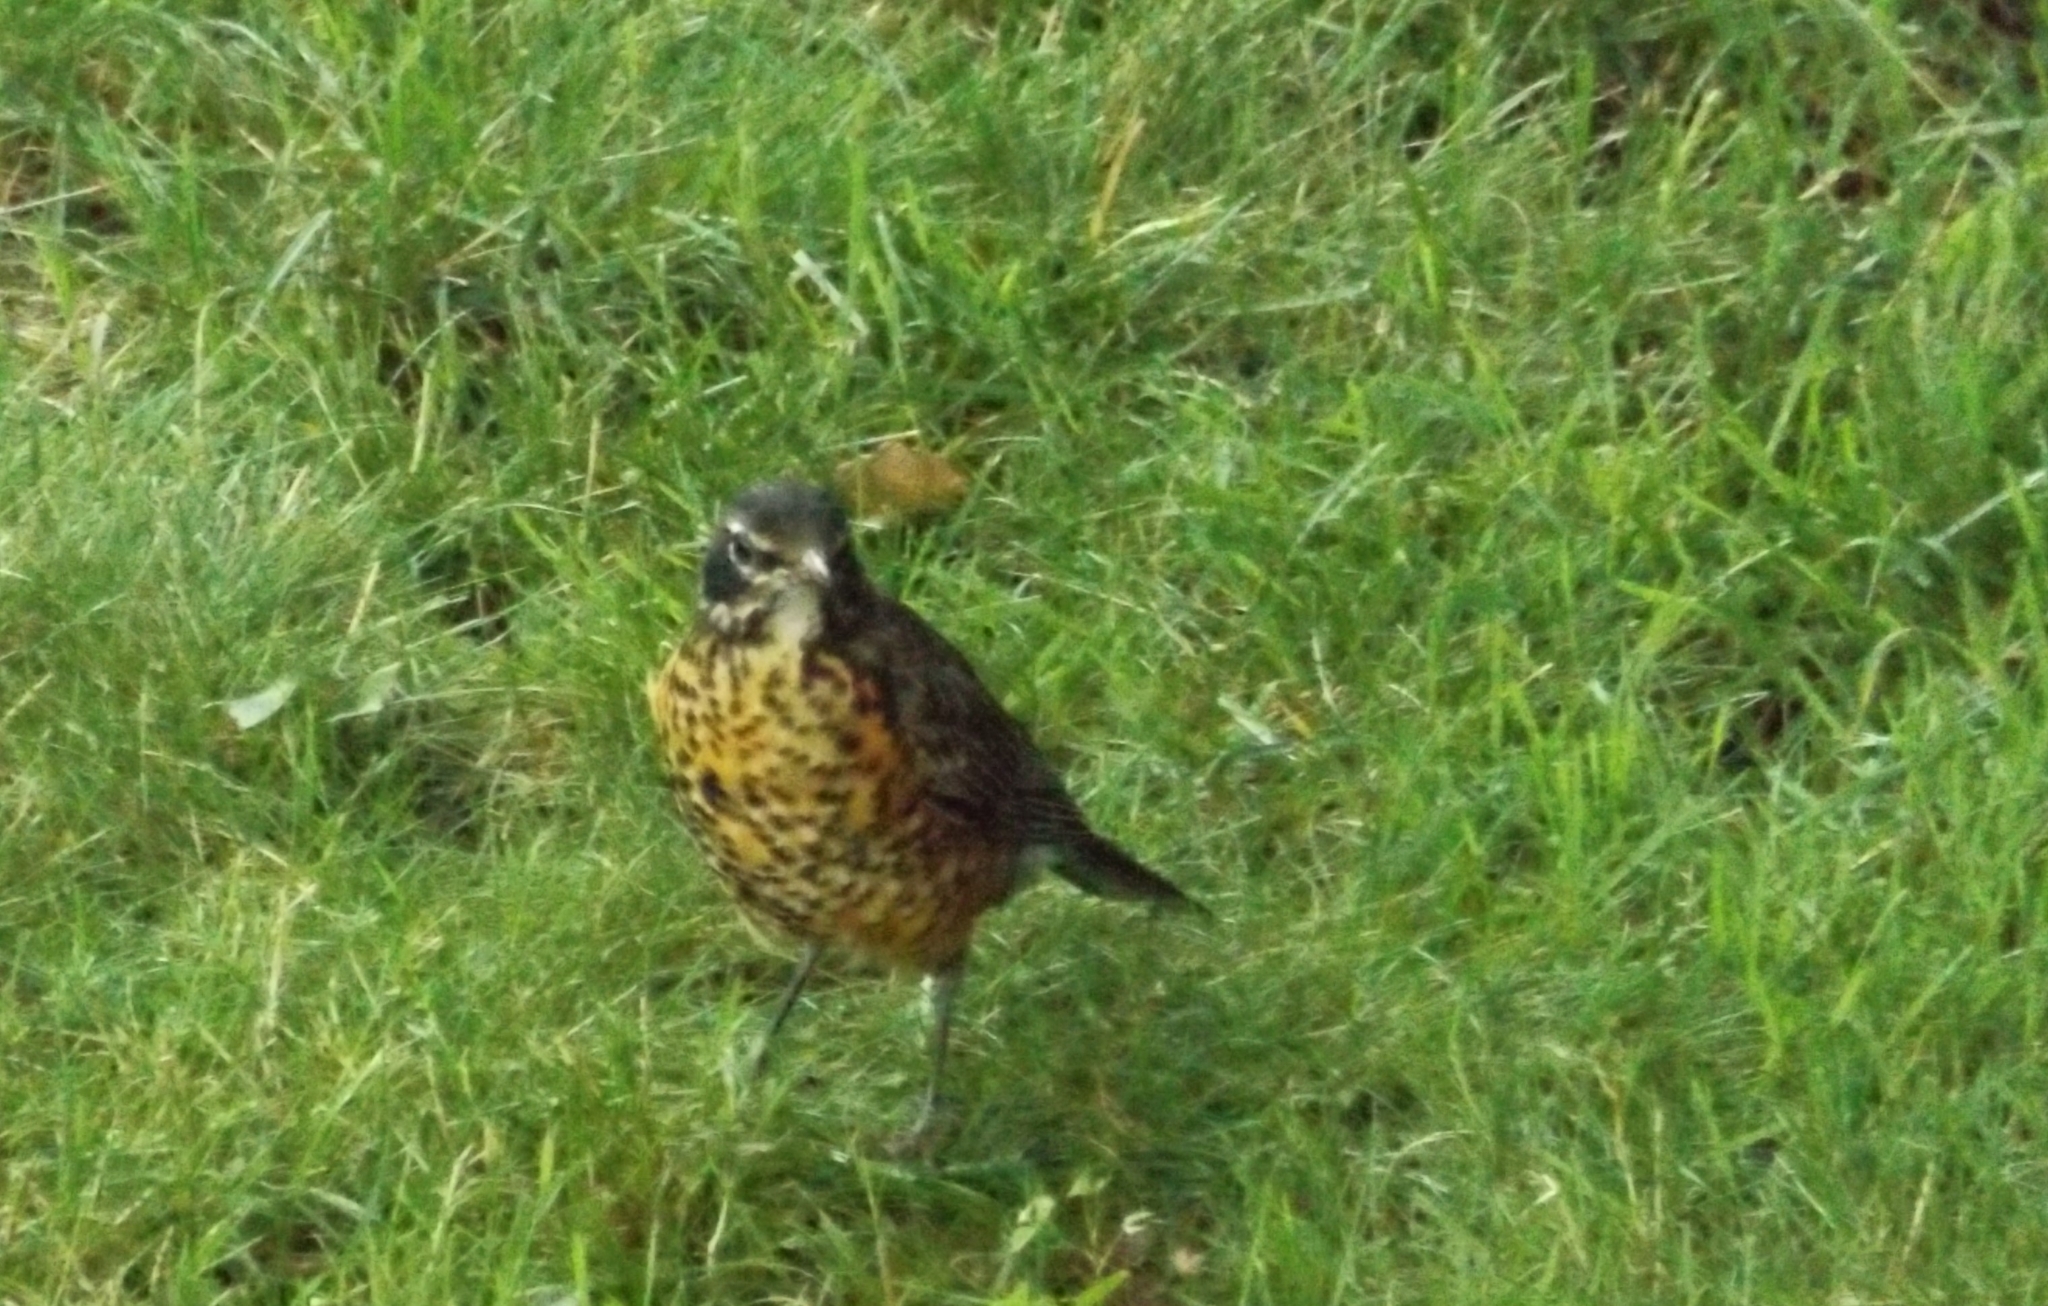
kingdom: Animalia
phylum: Chordata
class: Aves
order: Passeriformes
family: Turdidae
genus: Turdus
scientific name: Turdus migratorius
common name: American robin
